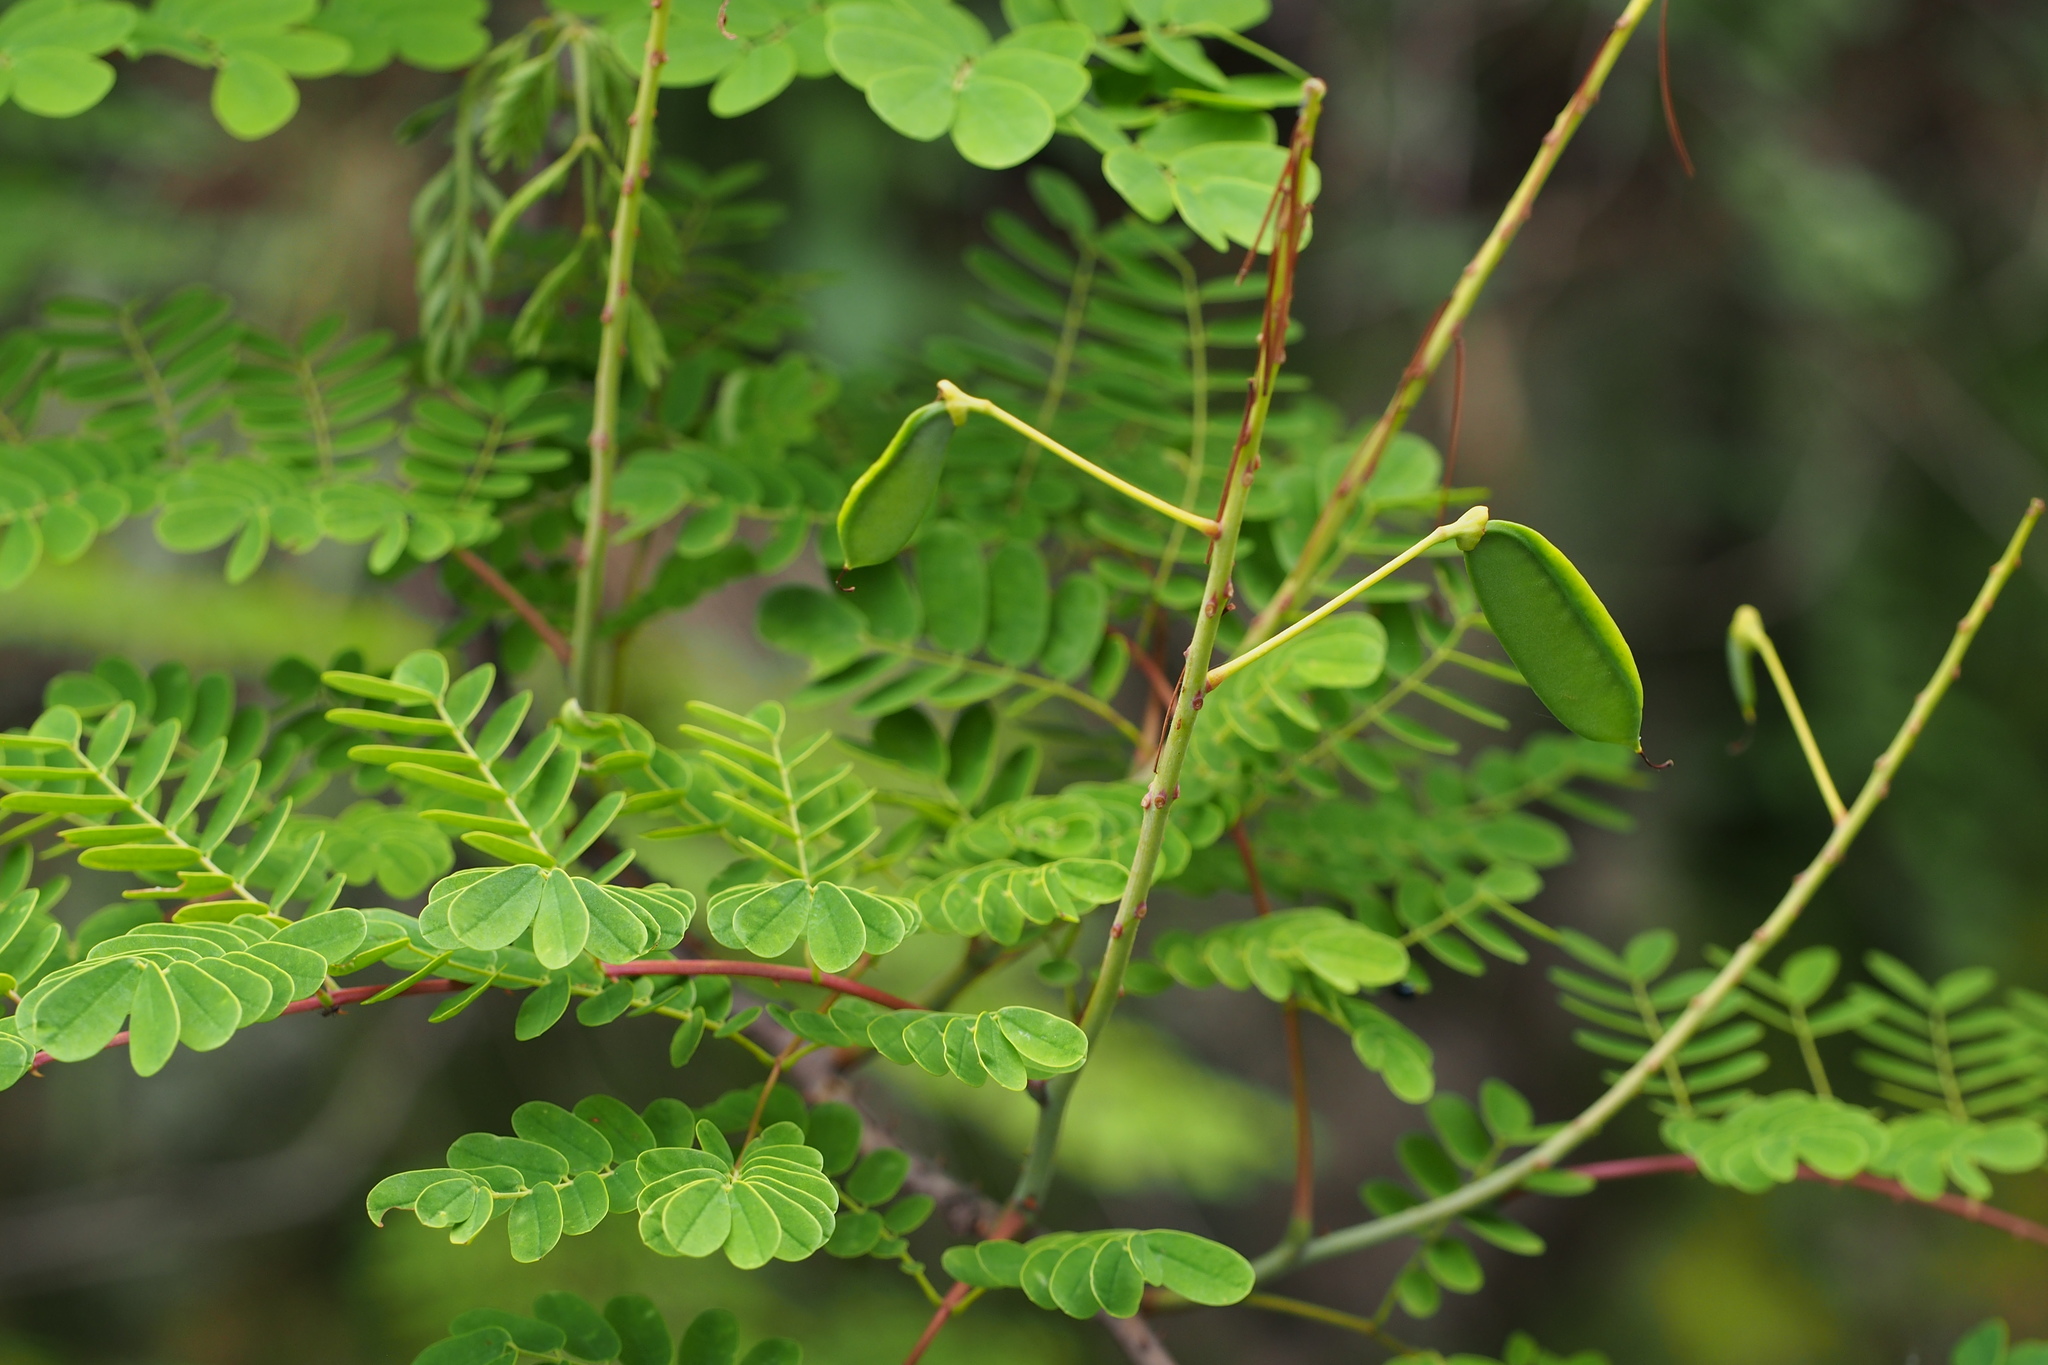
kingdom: Plantae
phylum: Tracheophyta
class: Magnoliopsida
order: Fabales
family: Fabaceae
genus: Biancaea
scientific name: Biancaea decapetala
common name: Cat's claw
